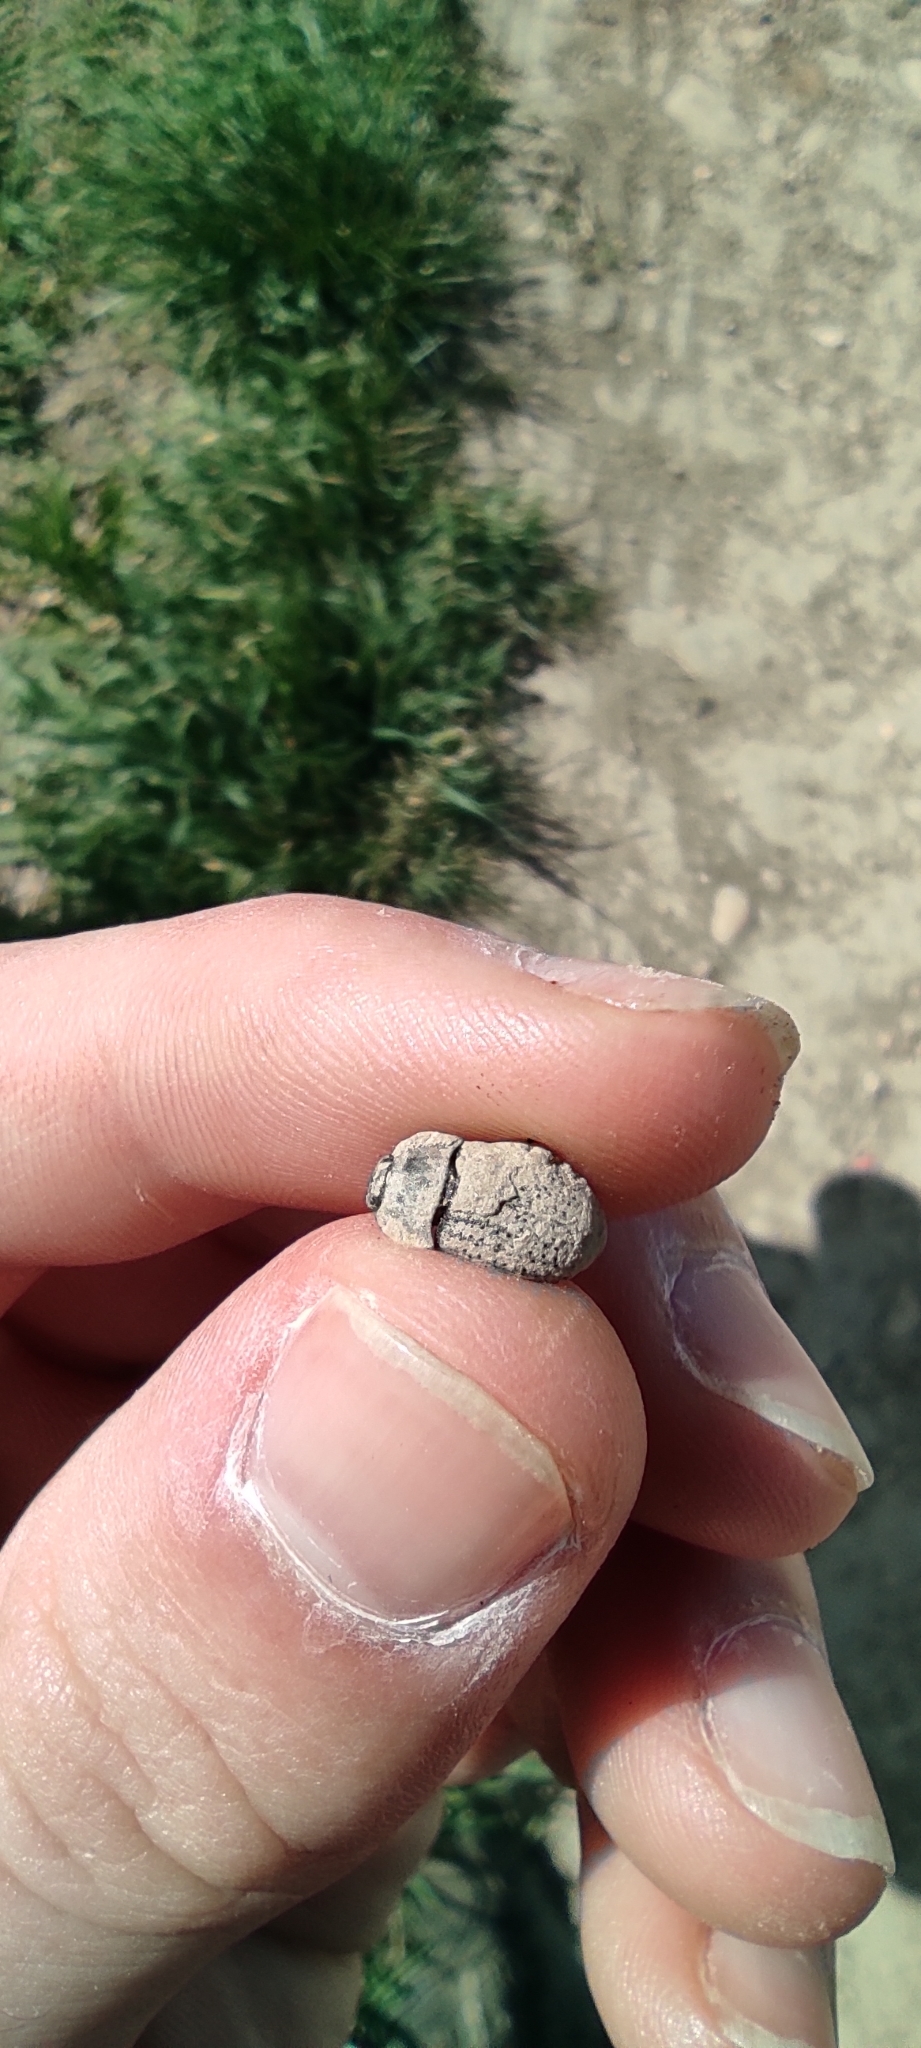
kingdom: Animalia
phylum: Arthropoda
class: Insecta
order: Coleoptera
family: Tenebrionidae
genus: Opatrum
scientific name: Opatrum sabulosum
